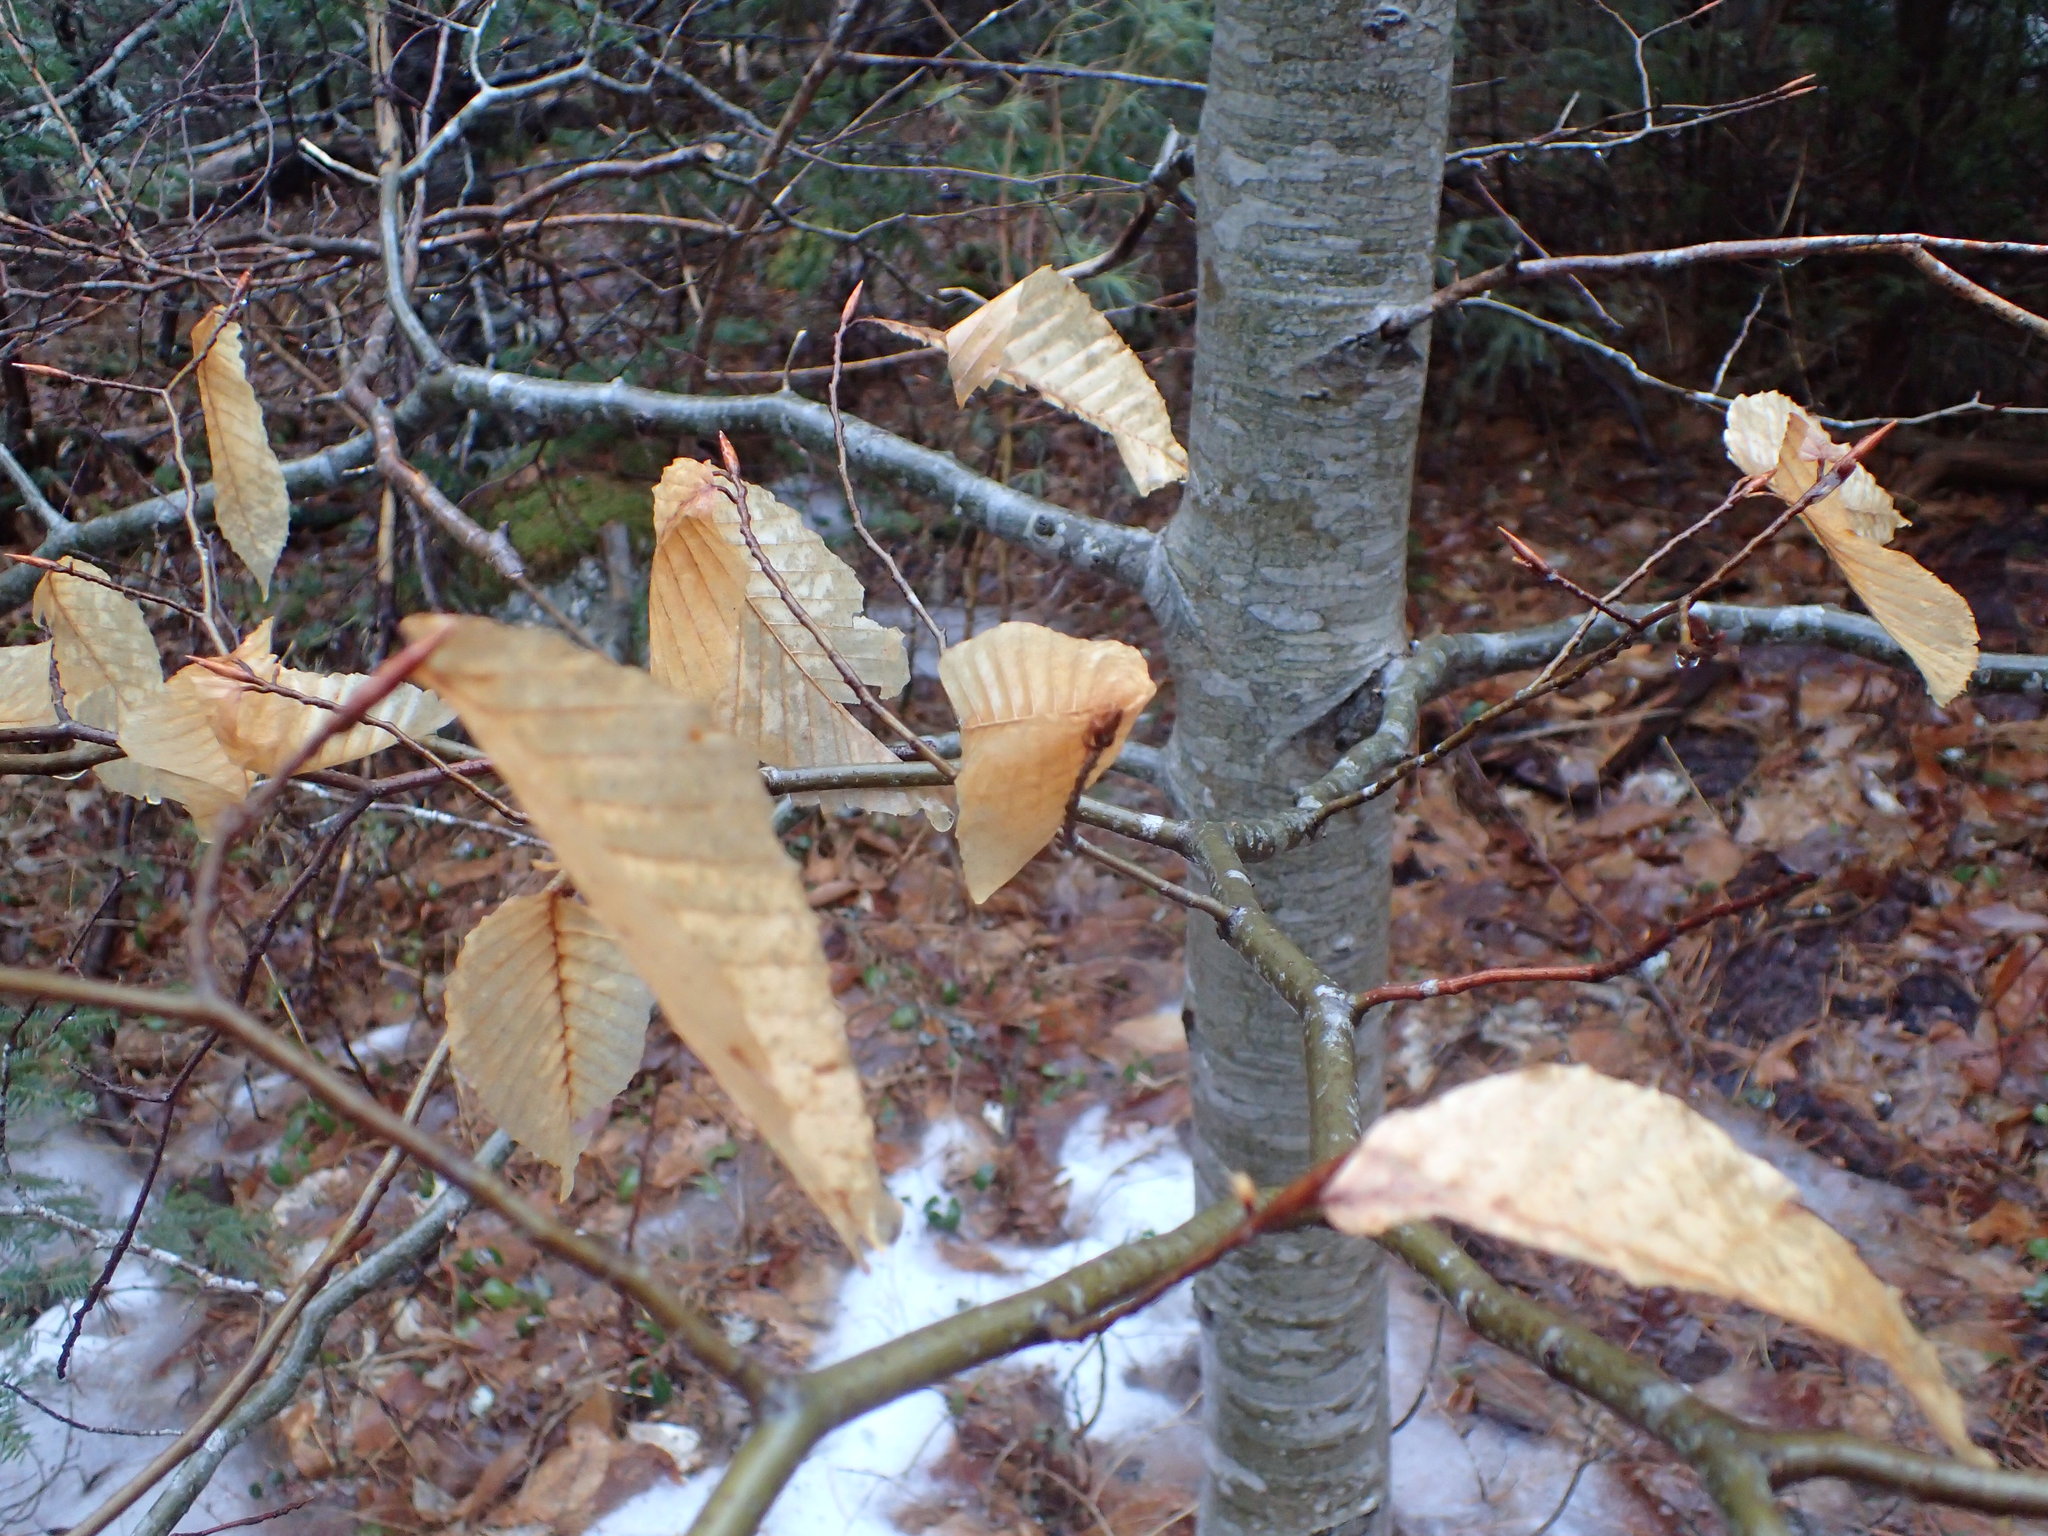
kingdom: Plantae
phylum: Tracheophyta
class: Magnoliopsida
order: Fagales
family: Fagaceae
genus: Fagus
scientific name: Fagus grandifolia
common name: American beech
